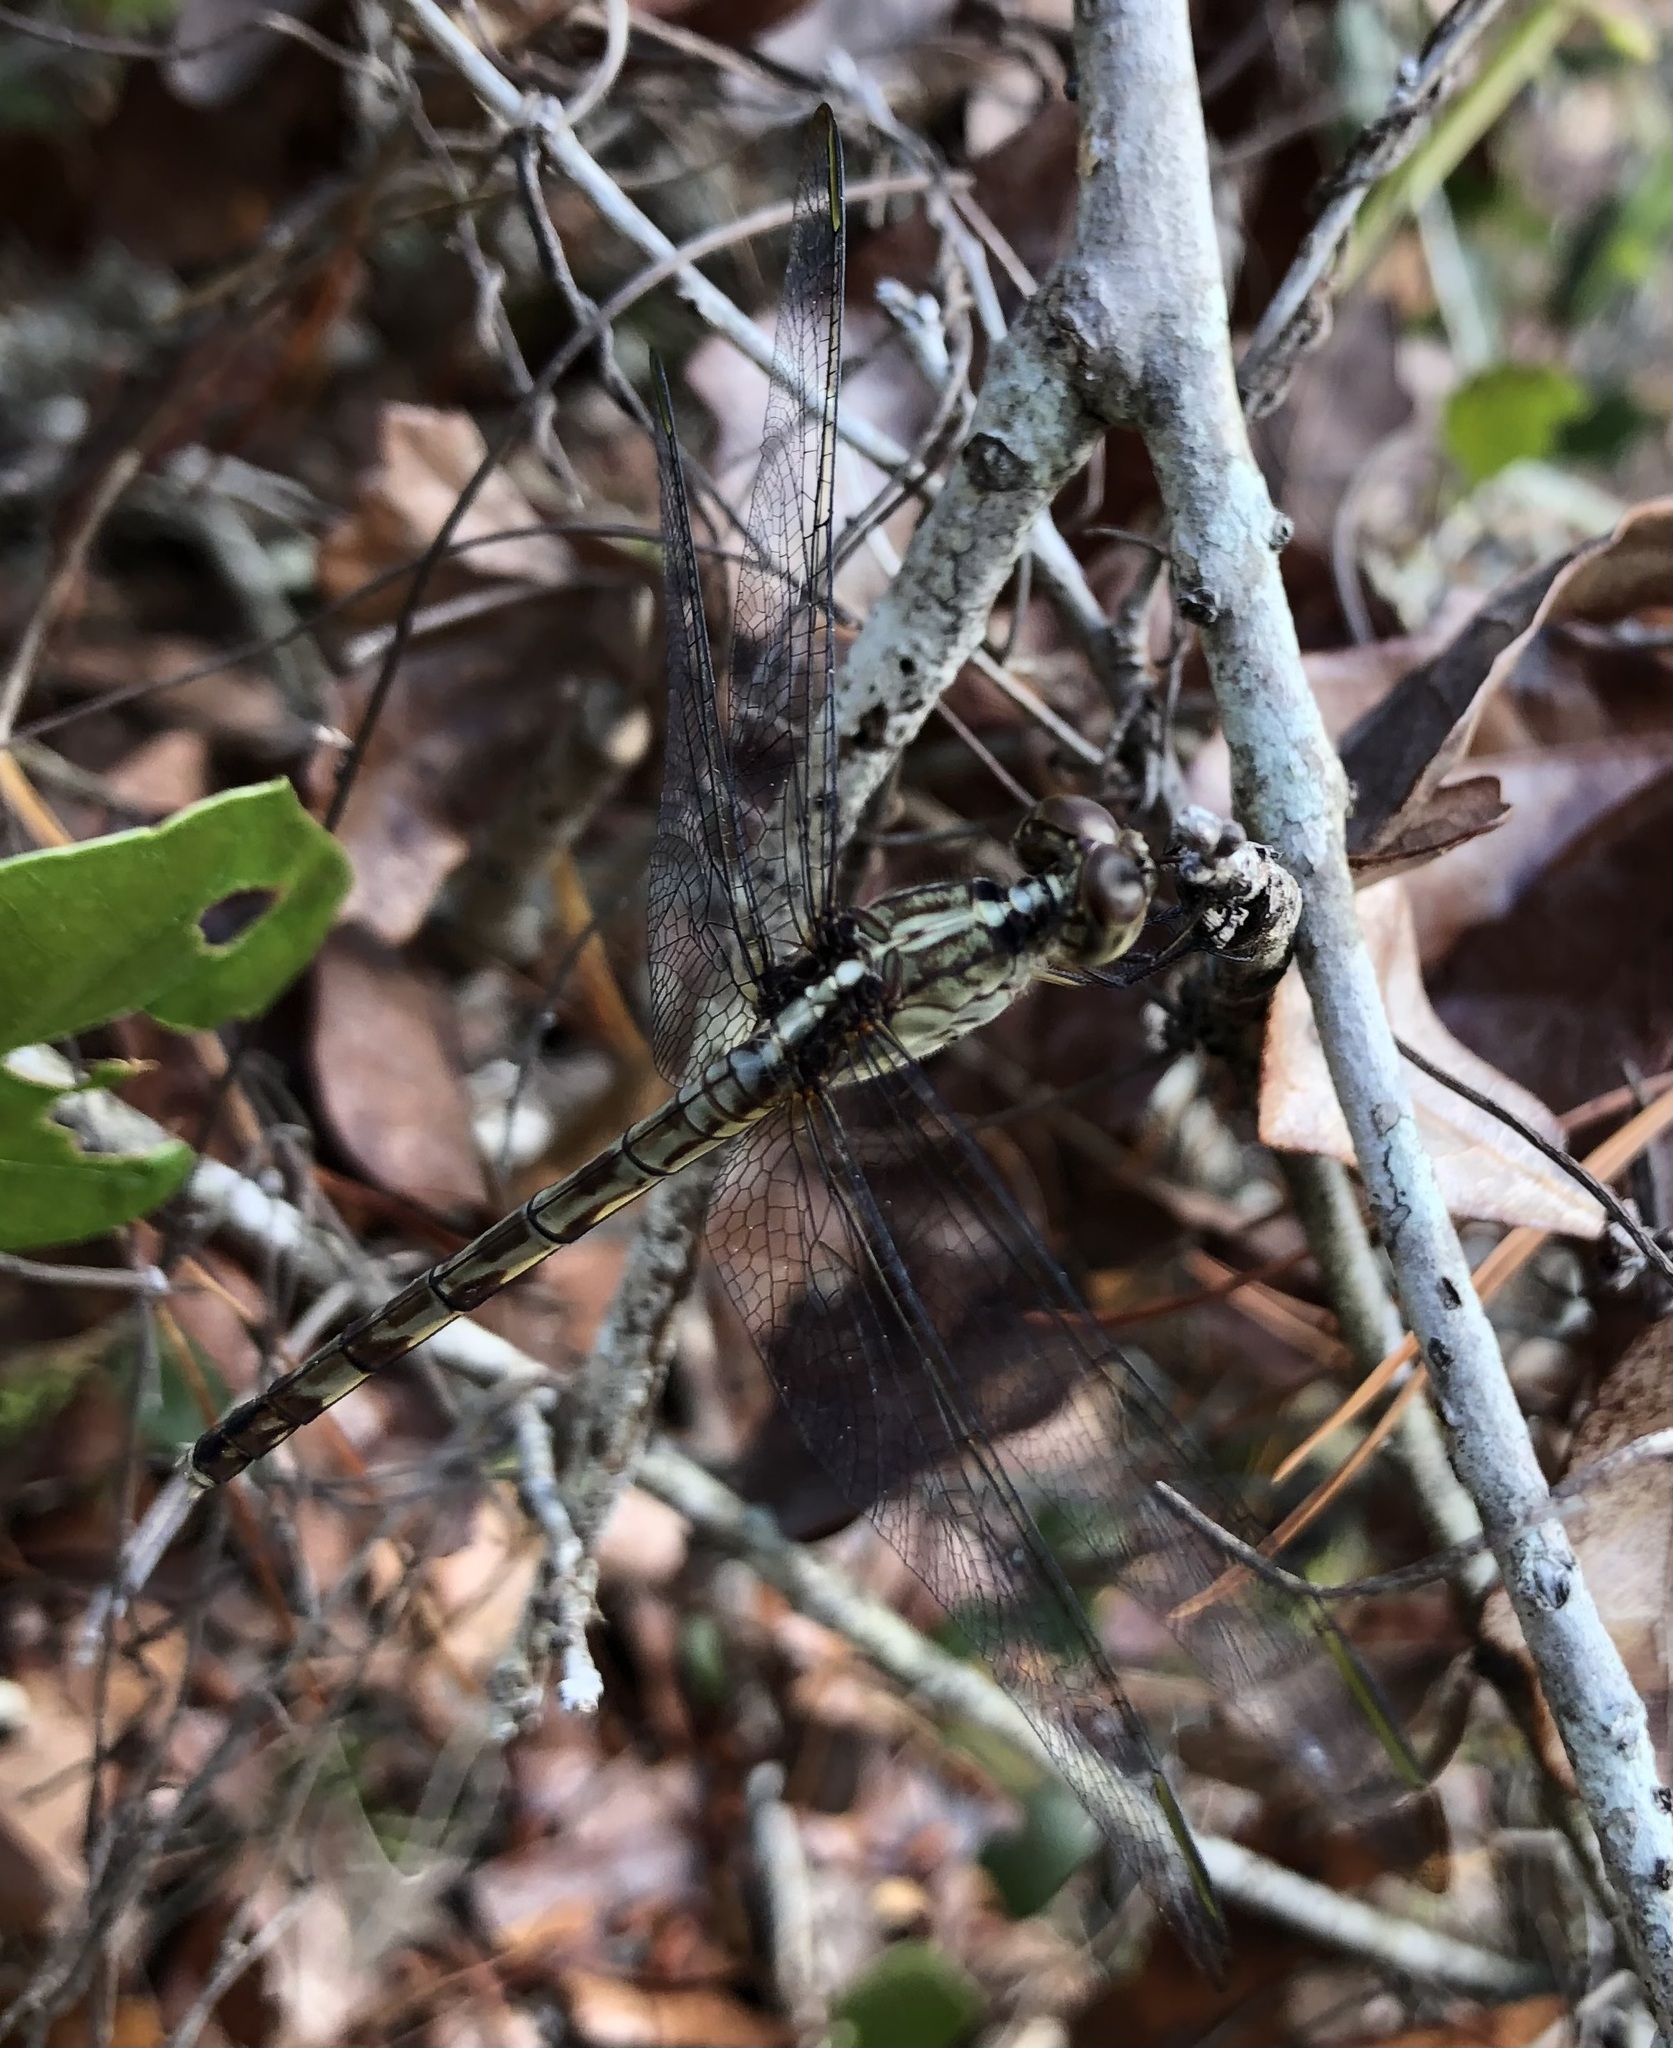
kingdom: Animalia
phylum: Arthropoda
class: Insecta
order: Odonata
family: Libellulidae
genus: Erythrodiplax
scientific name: Erythrodiplax umbrata
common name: Band-winged dragonlet
